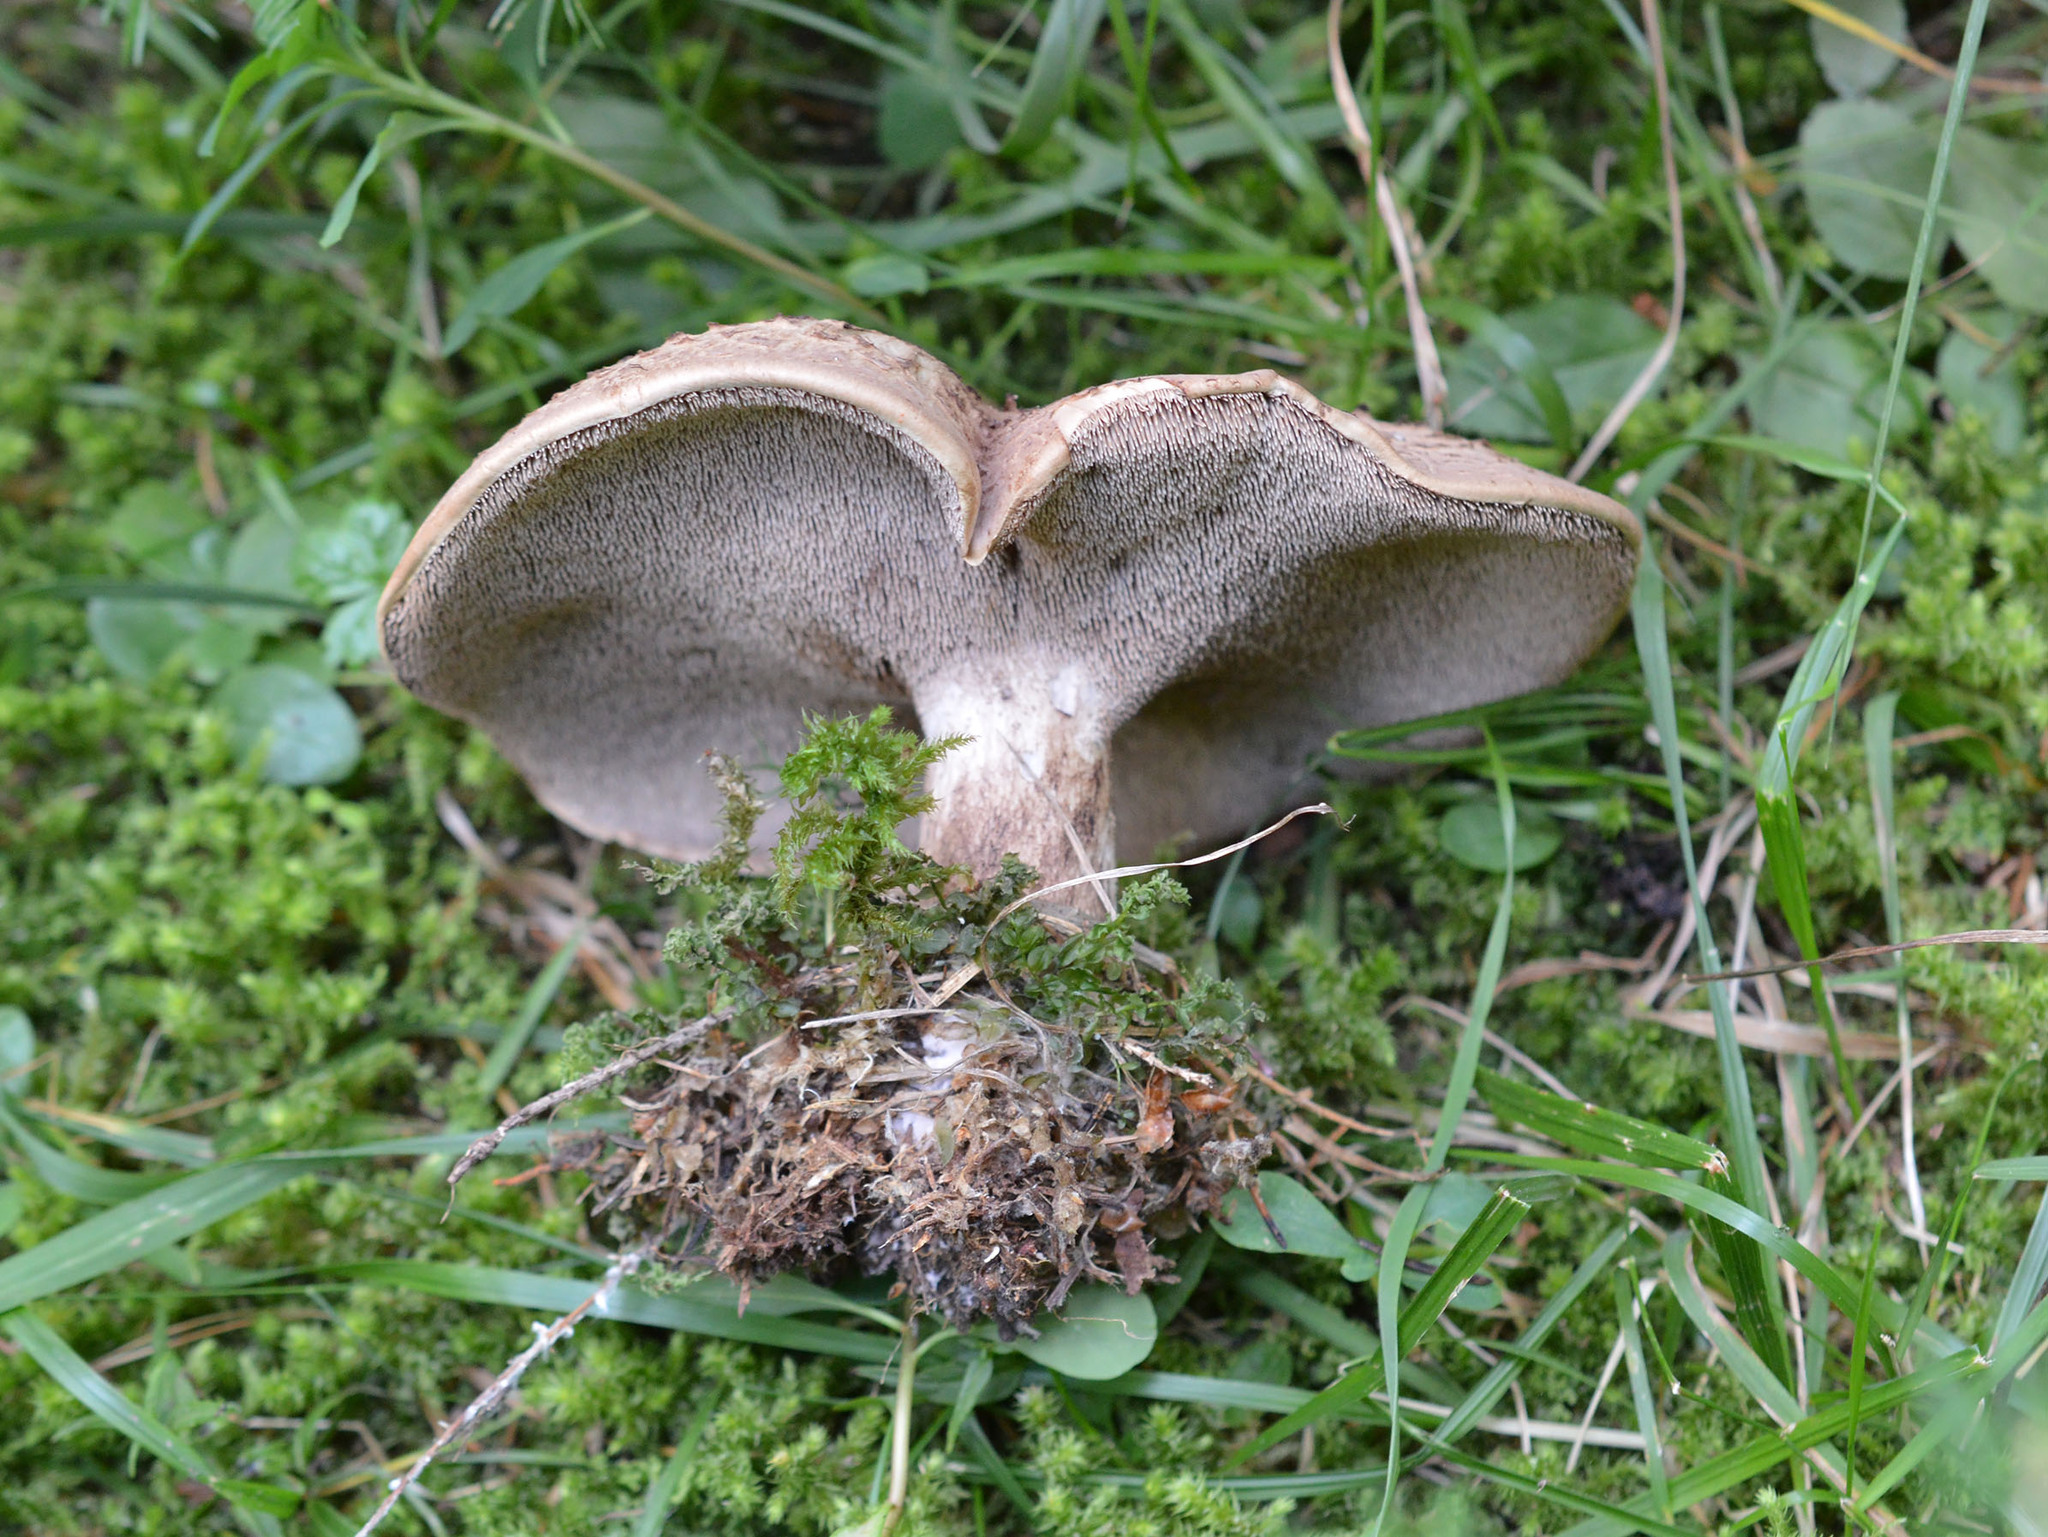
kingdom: Fungi
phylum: Basidiomycota
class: Agaricomycetes
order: Thelephorales
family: Bankeraceae
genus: Sarcodon
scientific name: Sarcodon imbricatus
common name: Shingled hedgehog
